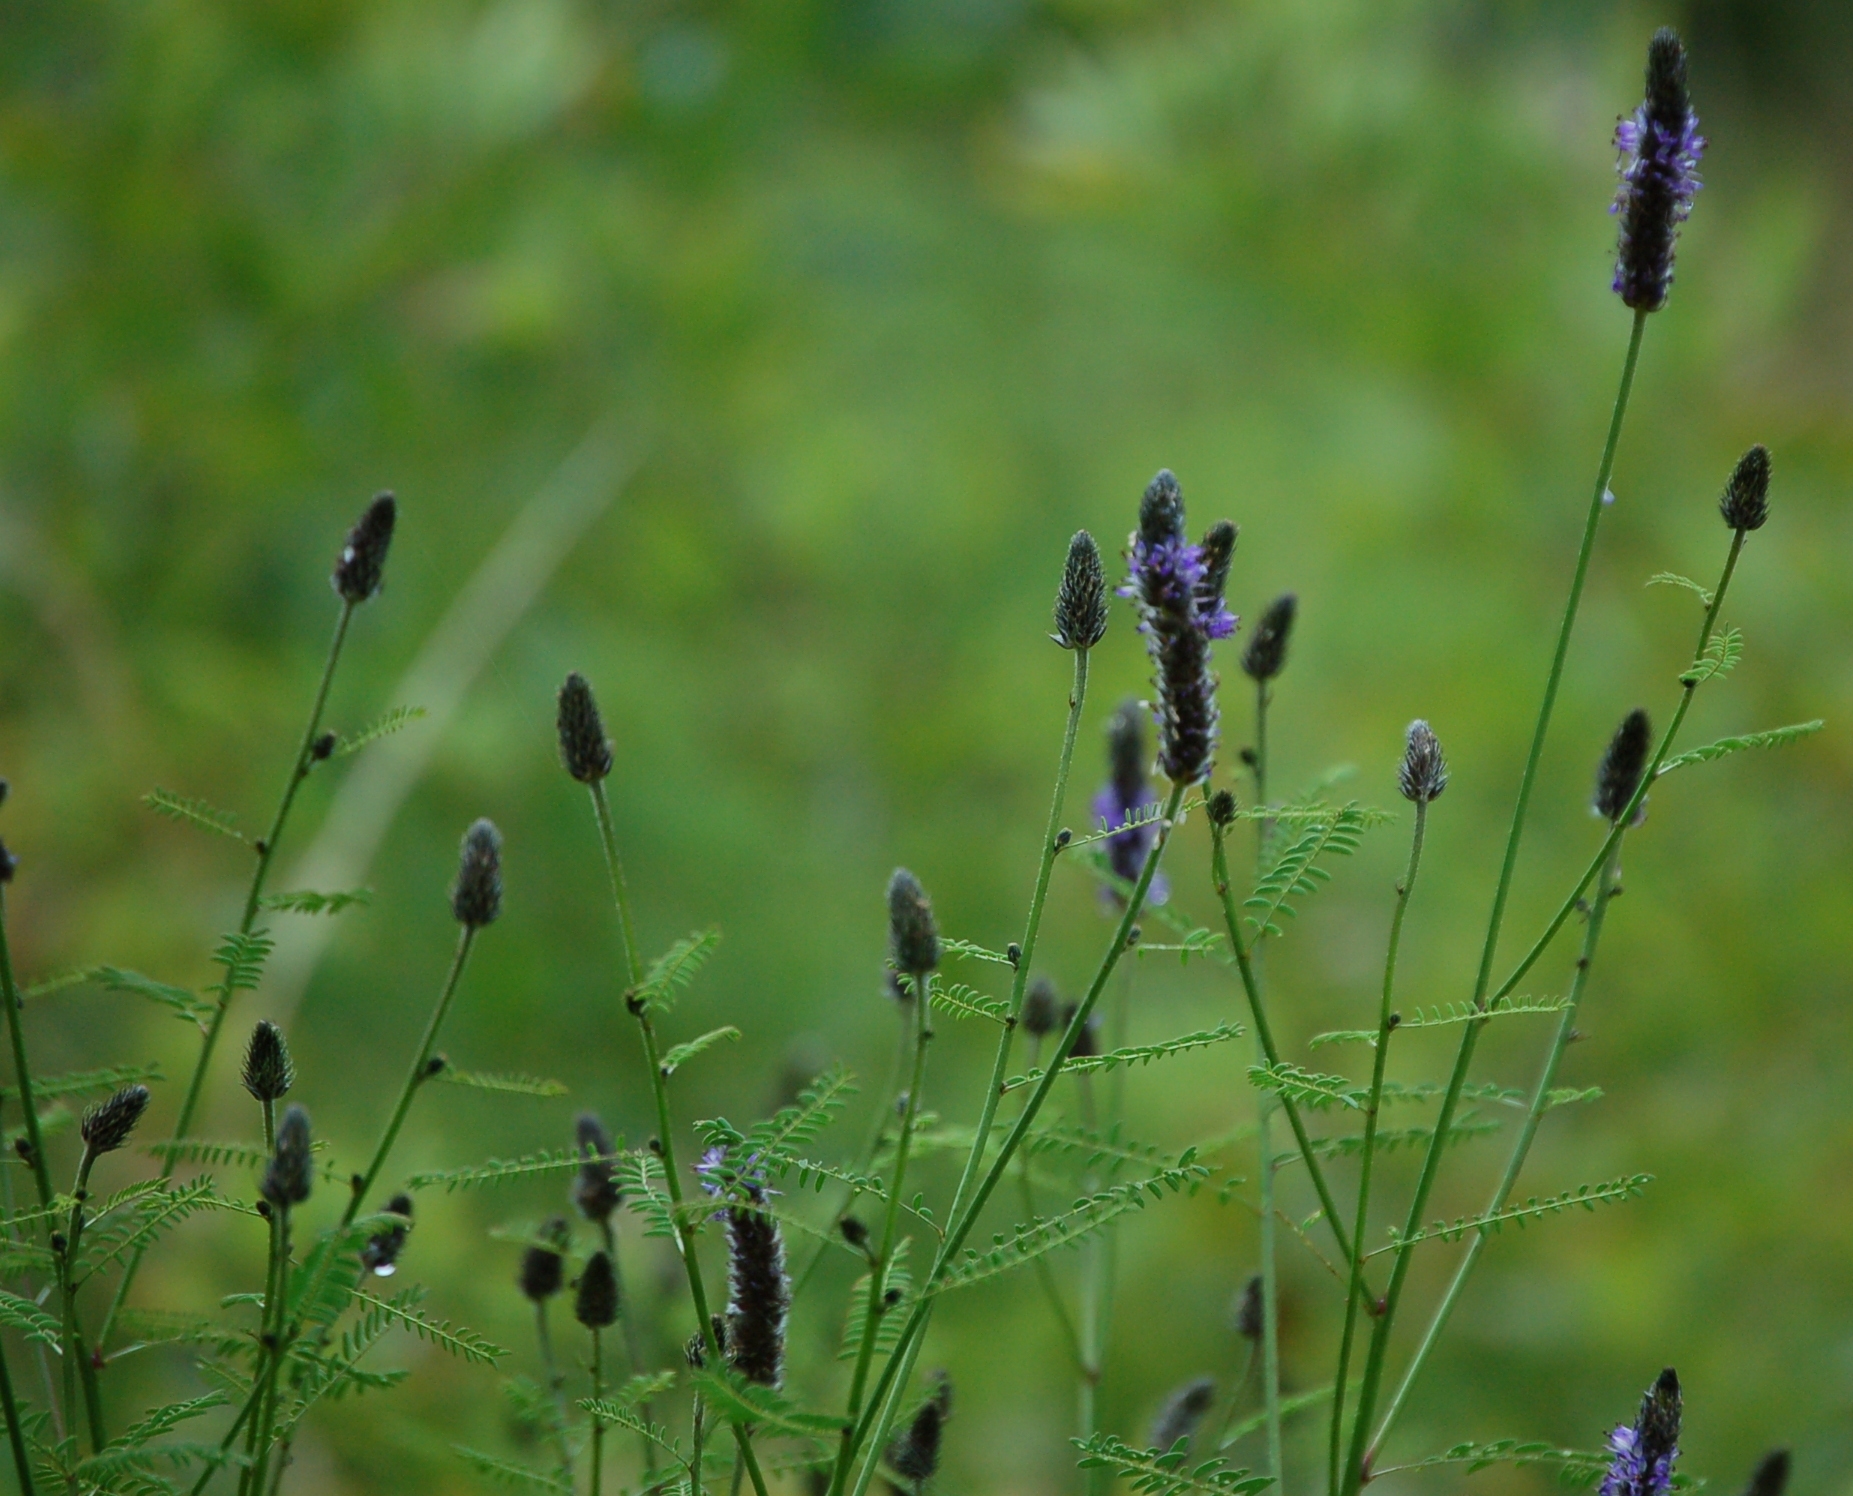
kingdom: Plantae
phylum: Tracheophyta
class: Magnoliopsida
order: Fabales
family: Fabaceae
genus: Dalea
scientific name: Dalea leporina
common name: Foxtail dalea
